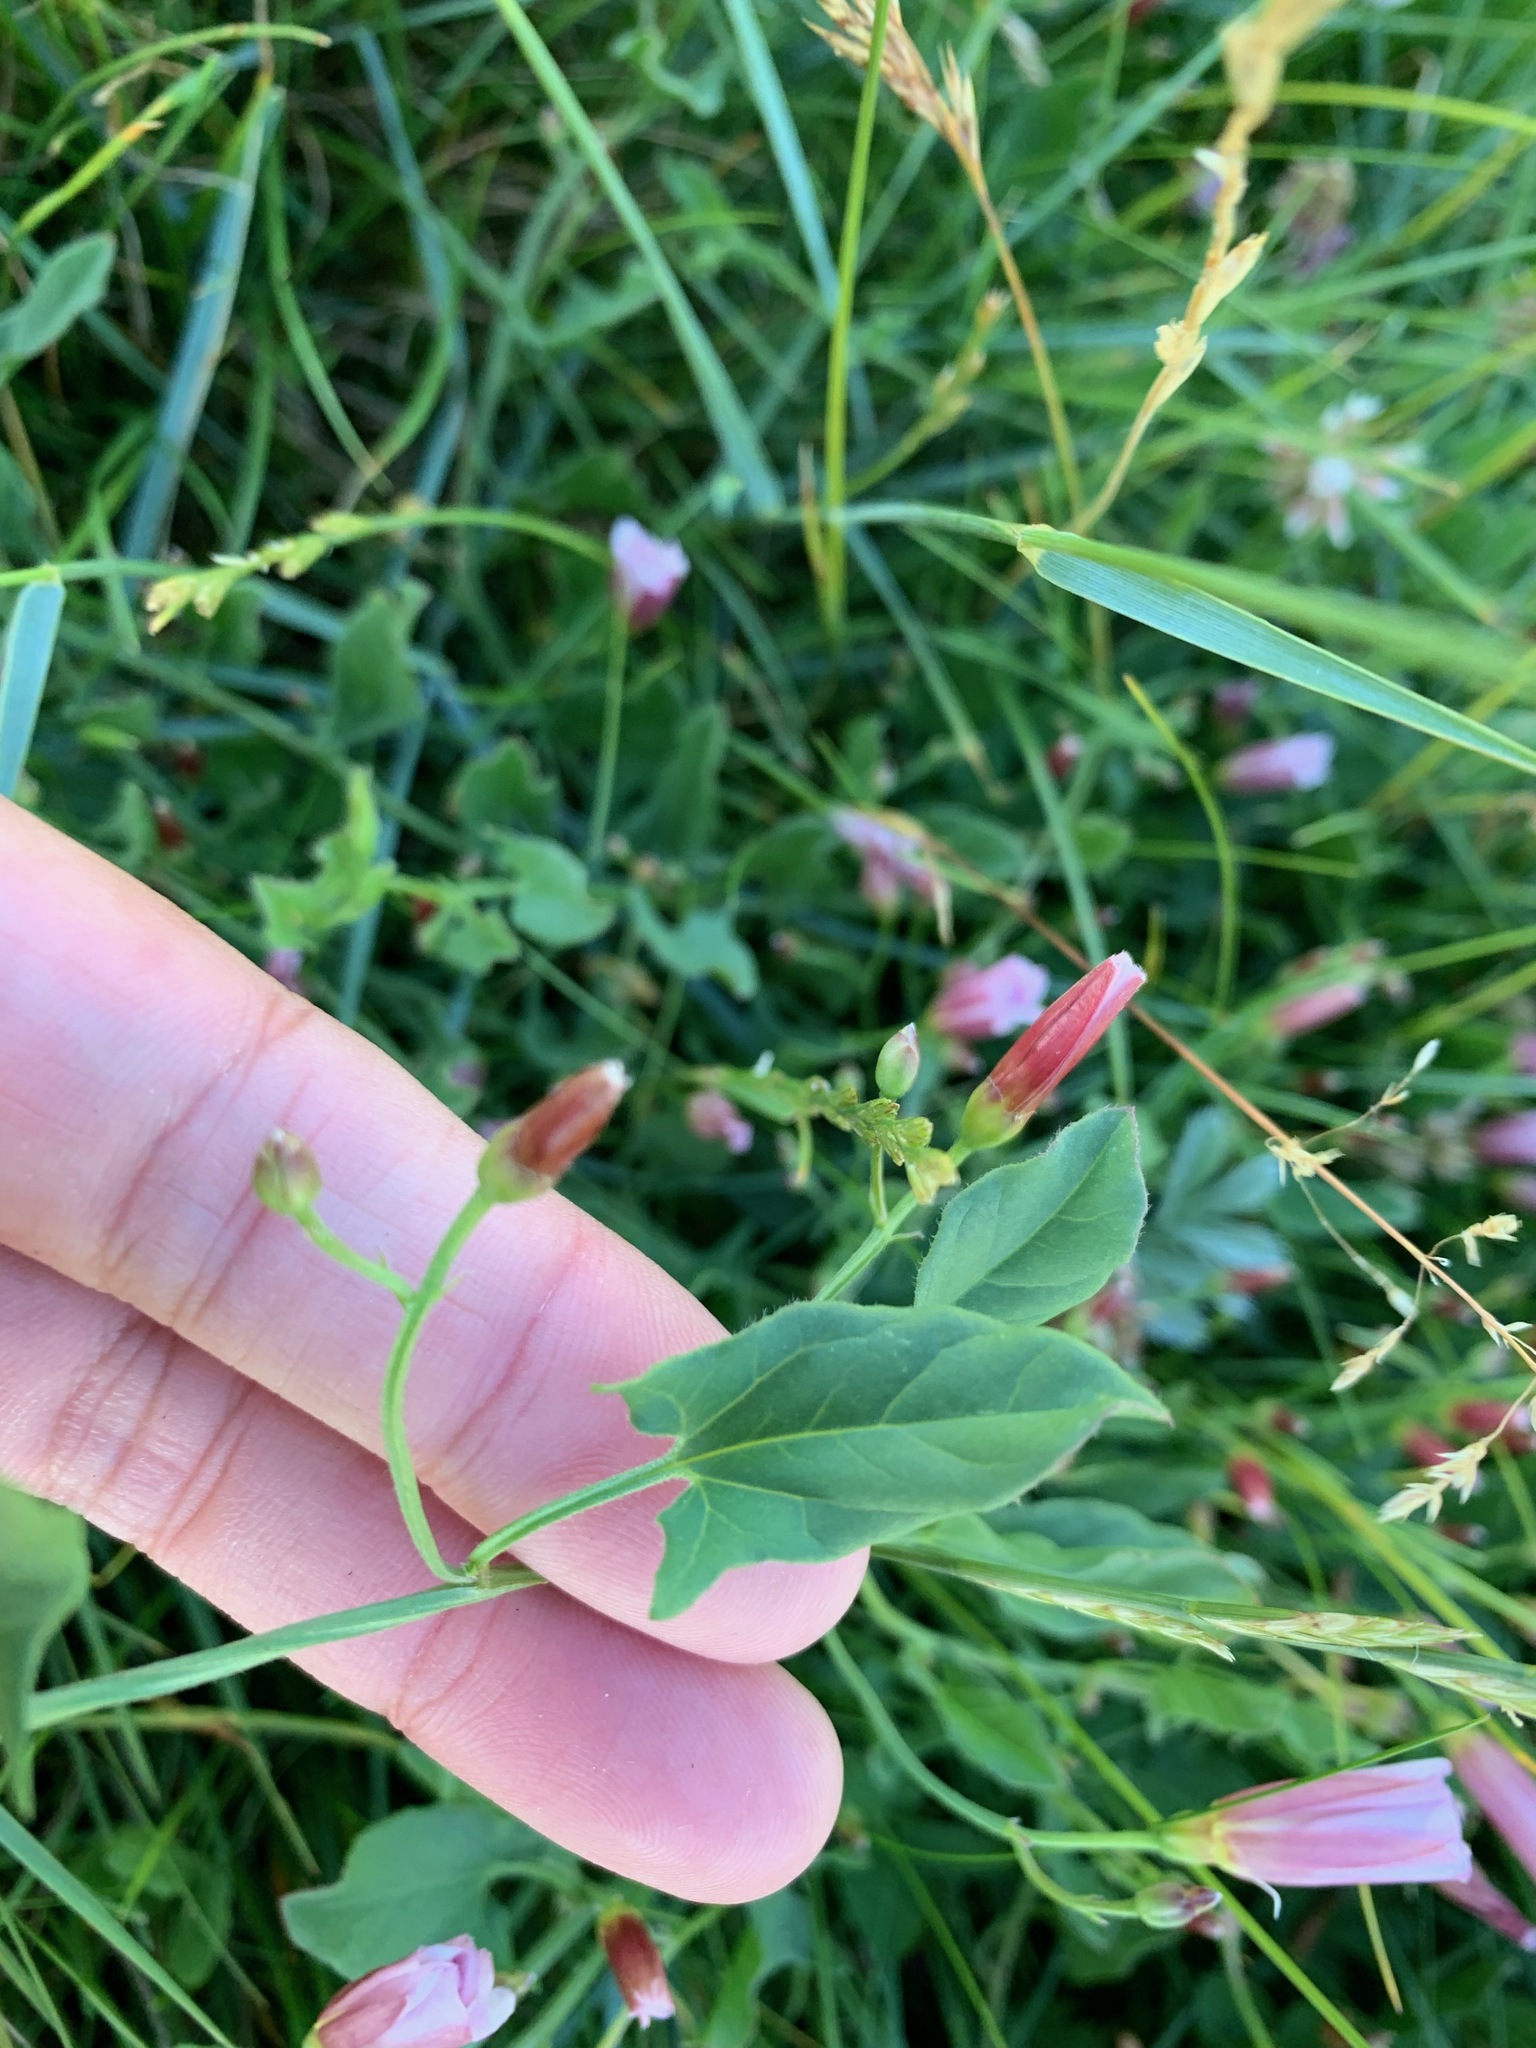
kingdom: Plantae
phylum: Tracheophyta
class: Magnoliopsida
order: Solanales
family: Convolvulaceae
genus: Convolvulus
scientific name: Convolvulus arvensis
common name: Field bindweed
